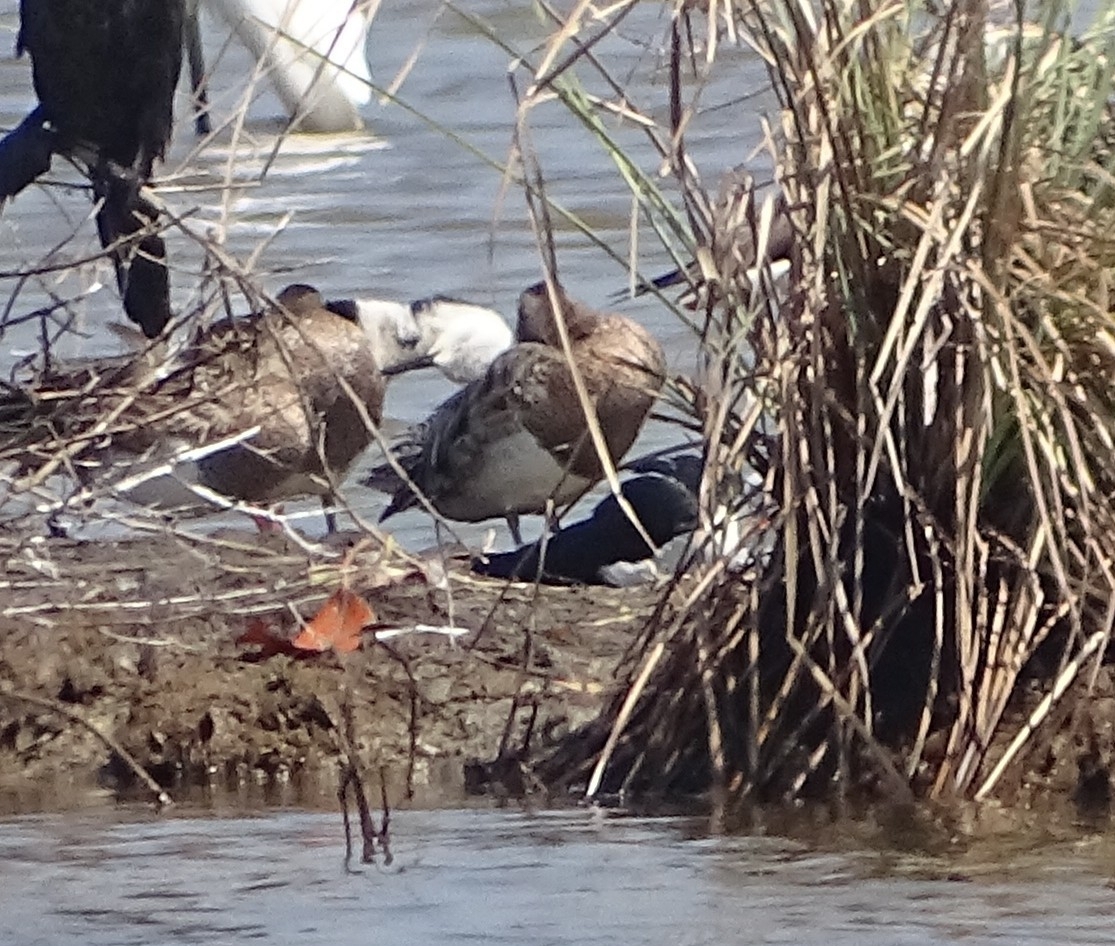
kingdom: Animalia
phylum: Chordata
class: Aves
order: Anseriformes
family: Anatidae
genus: Spatula
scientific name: Spatula querquedula
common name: Garganey
